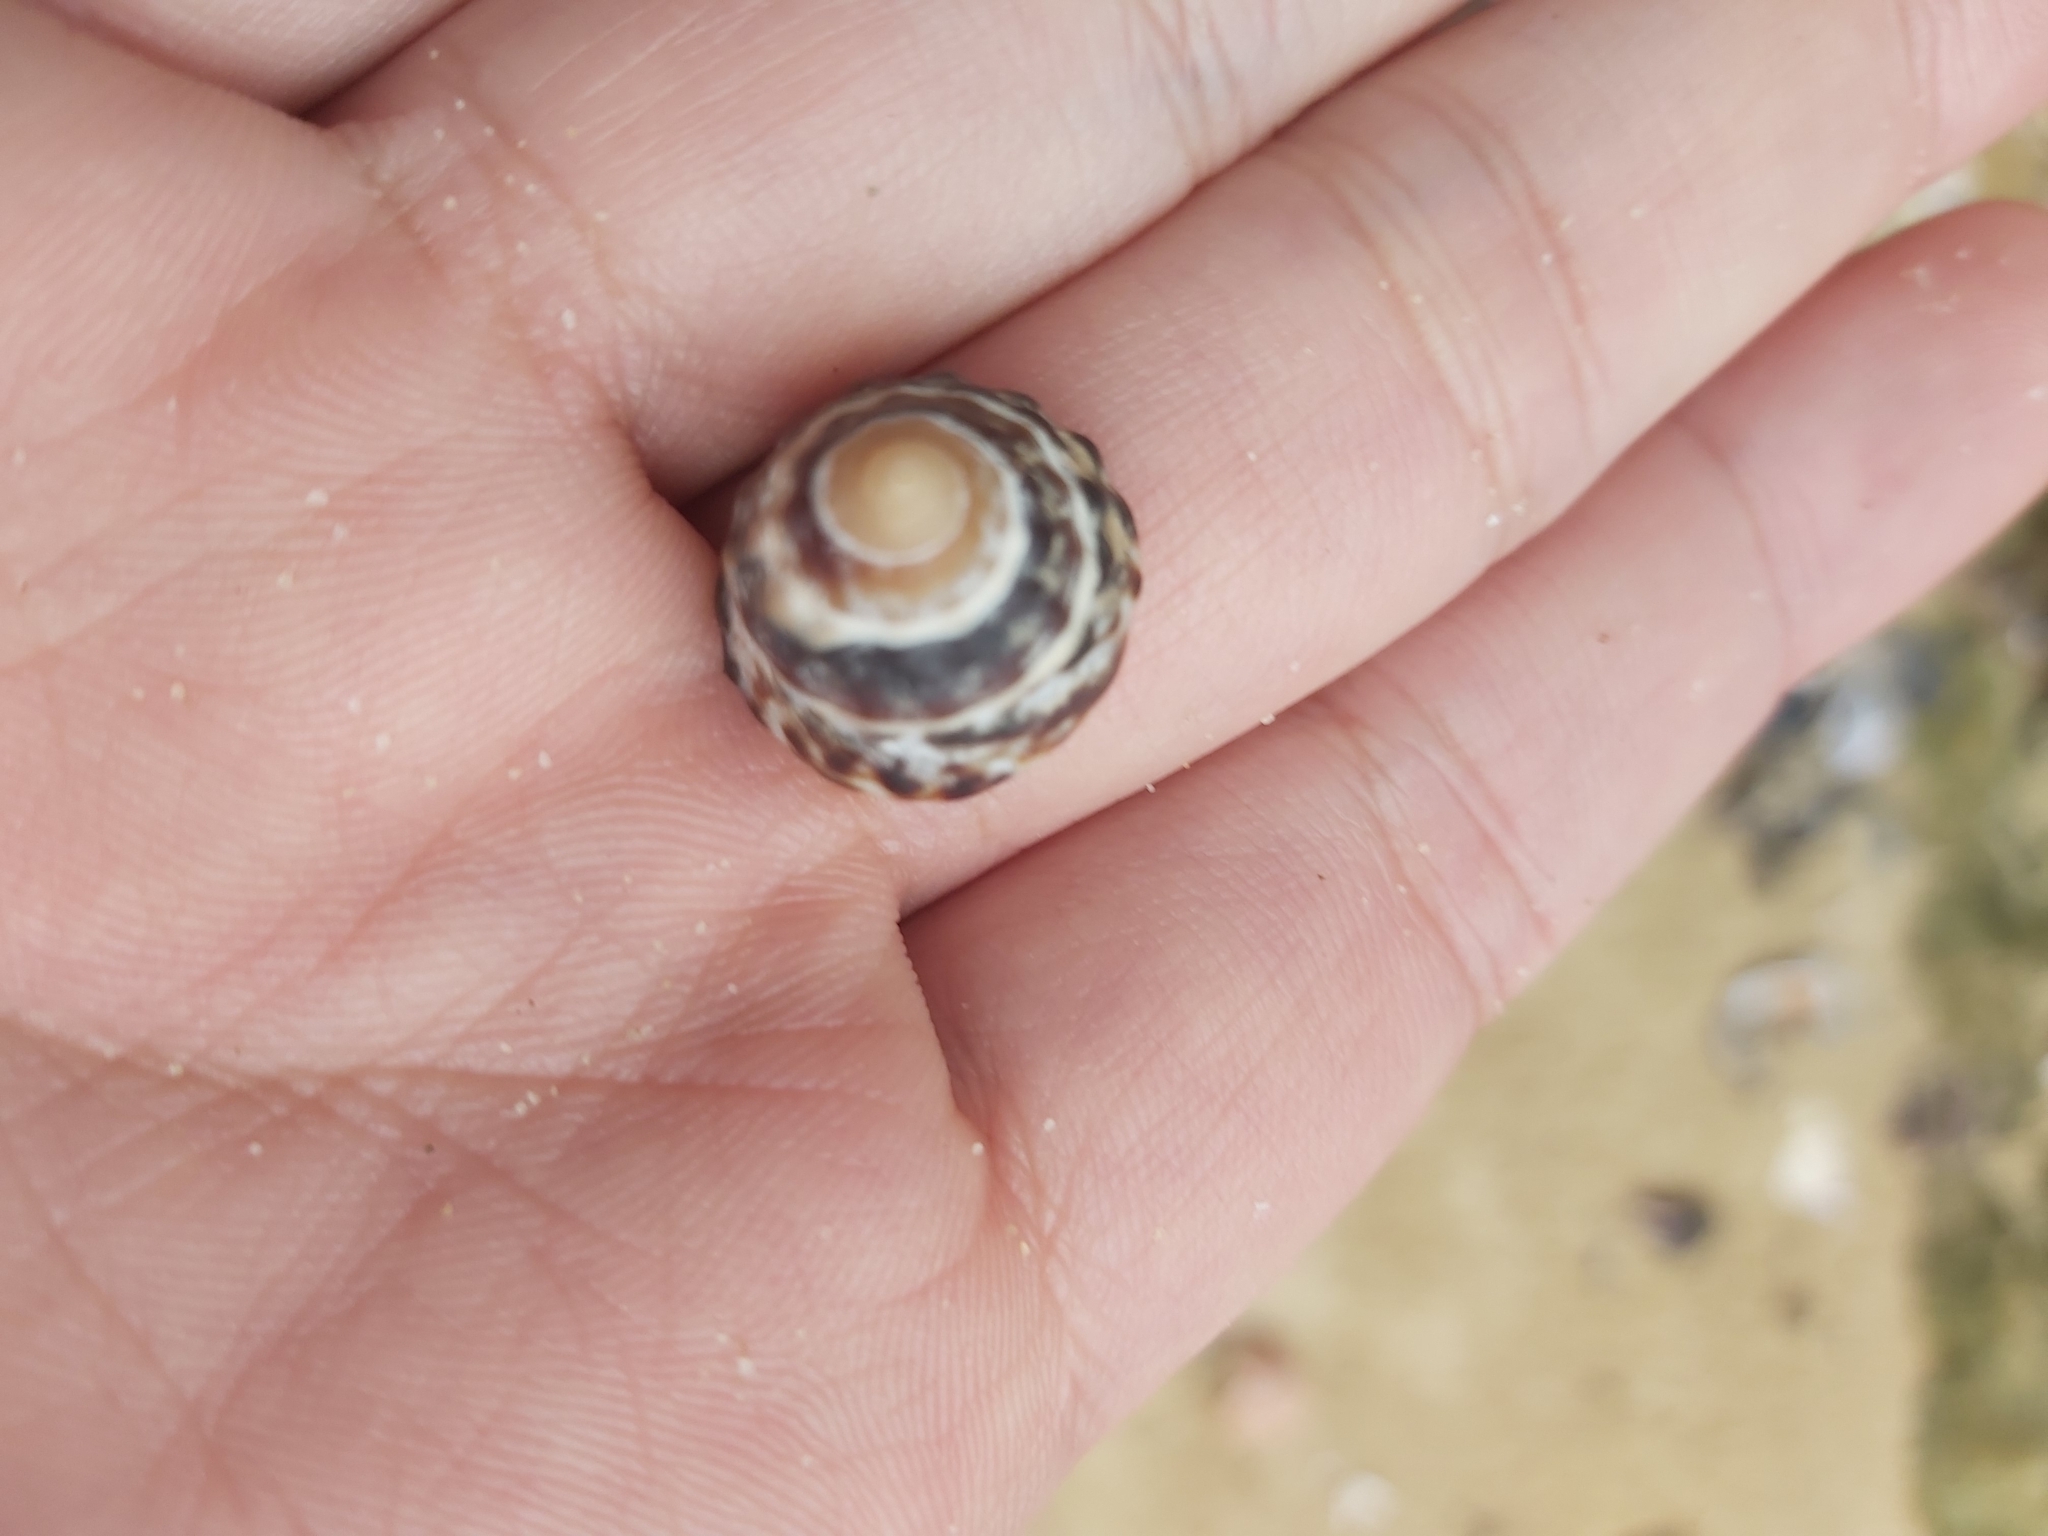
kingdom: Animalia
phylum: Mollusca
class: Gastropoda
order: Littorinimorpha
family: Littorinidae
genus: Bembicium
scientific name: Bembicium nanum
